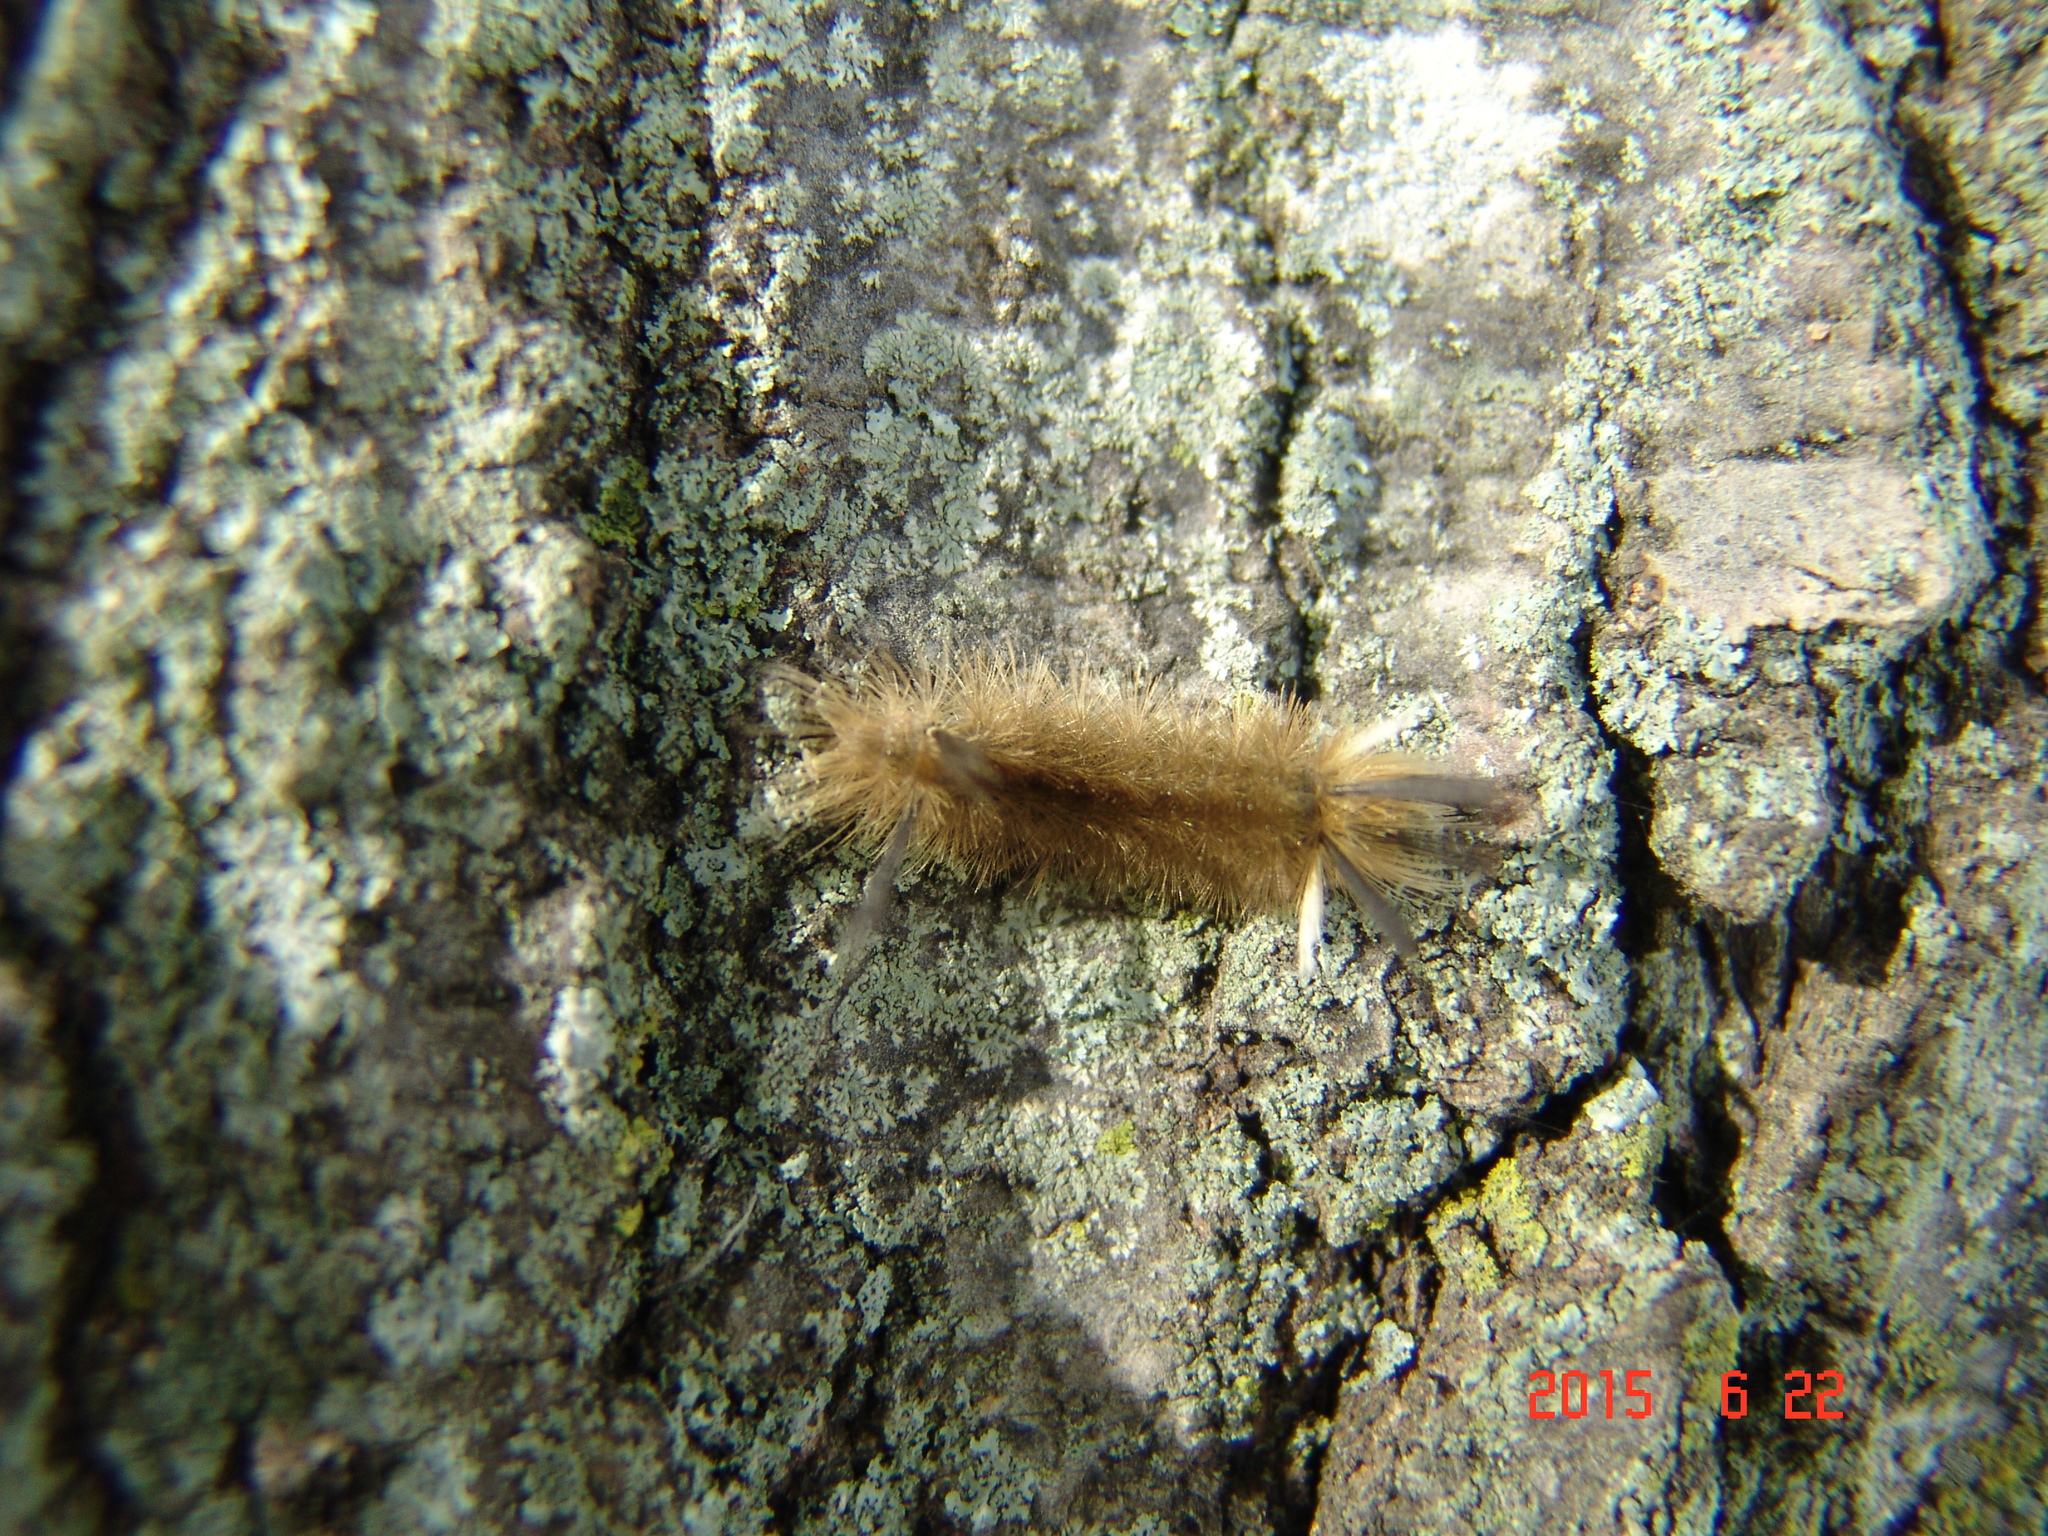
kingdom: Animalia
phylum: Arthropoda
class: Insecta
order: Lepidoptera
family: Erebidae
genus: Halysidota
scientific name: Halysidota tessellaris
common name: Banded tussock moth
